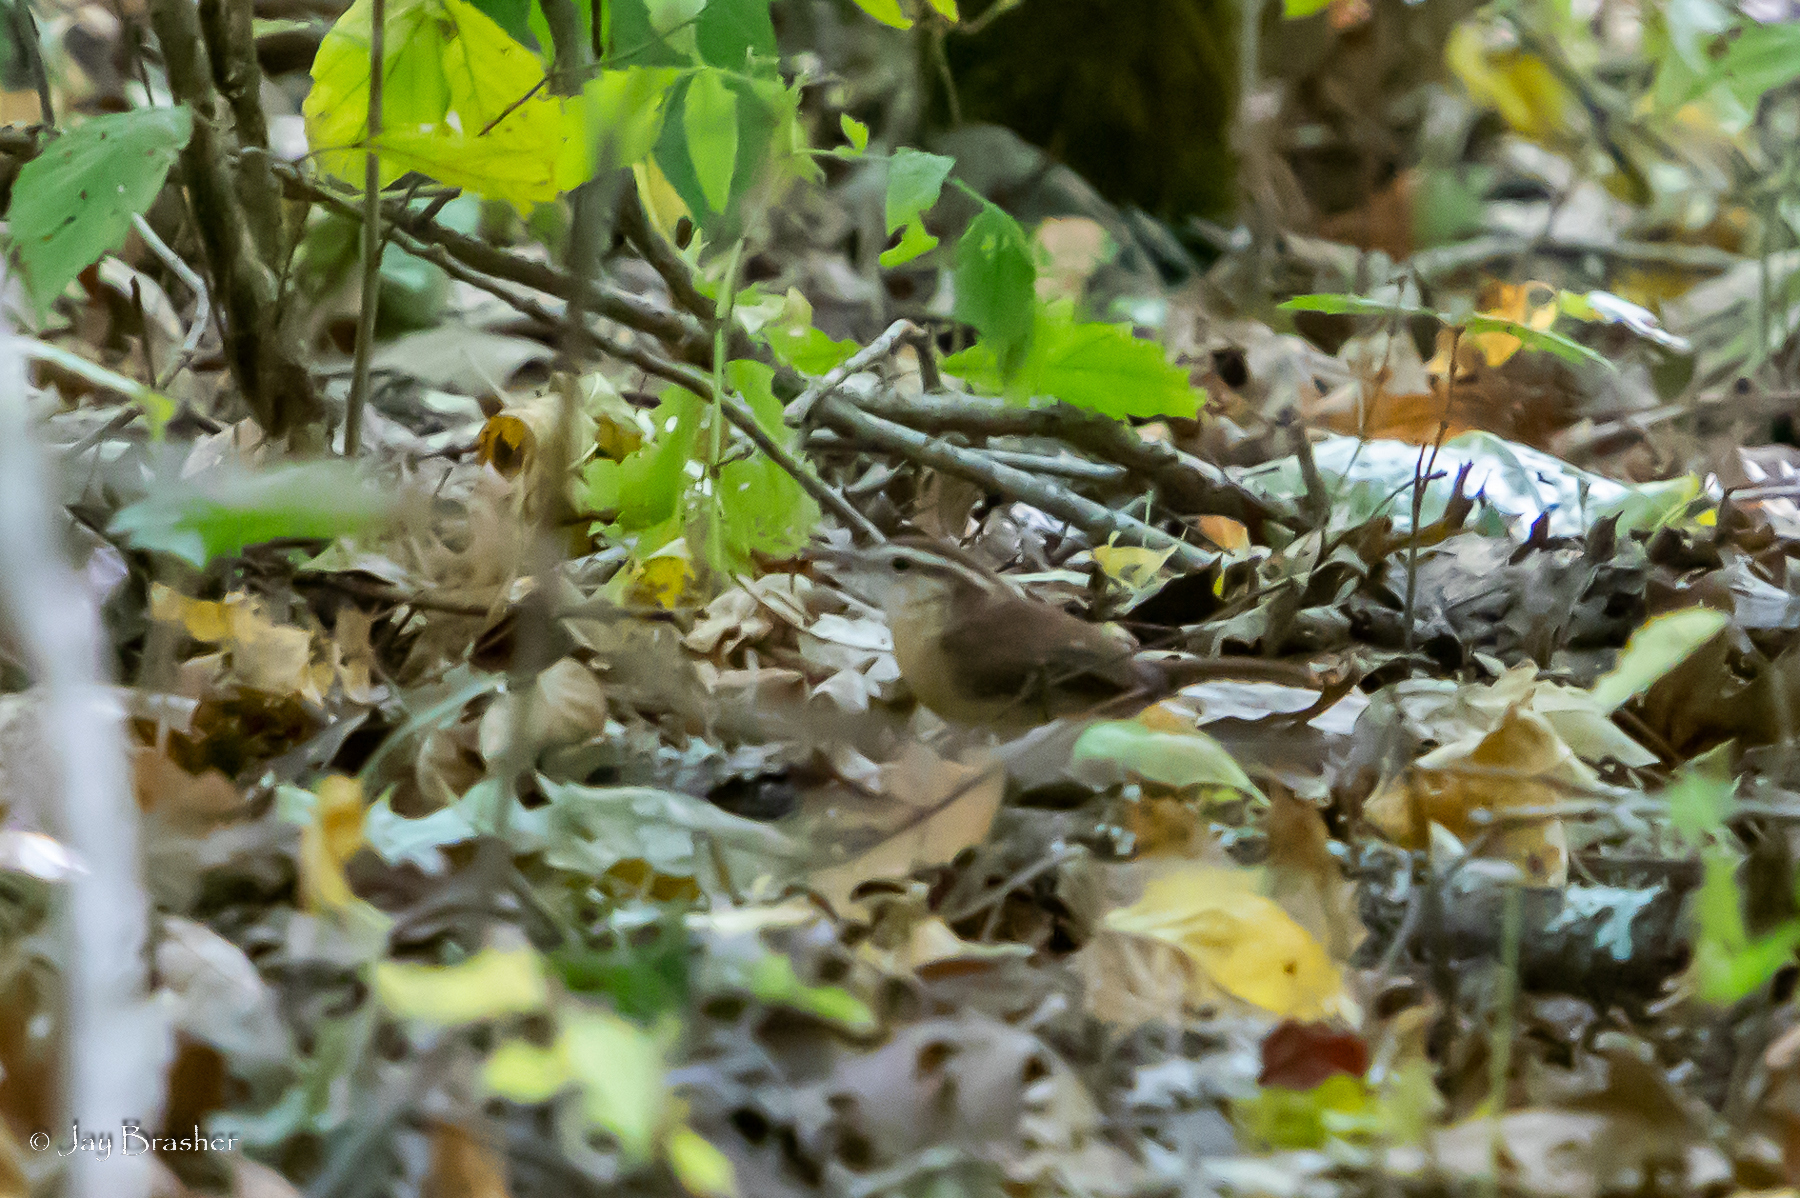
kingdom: Animalia
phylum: Chordata
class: Aves
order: Passeriformes
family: Troglodytidae
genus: Thryothorus
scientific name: Thryothorus ludovicianus
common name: Carolina wren
